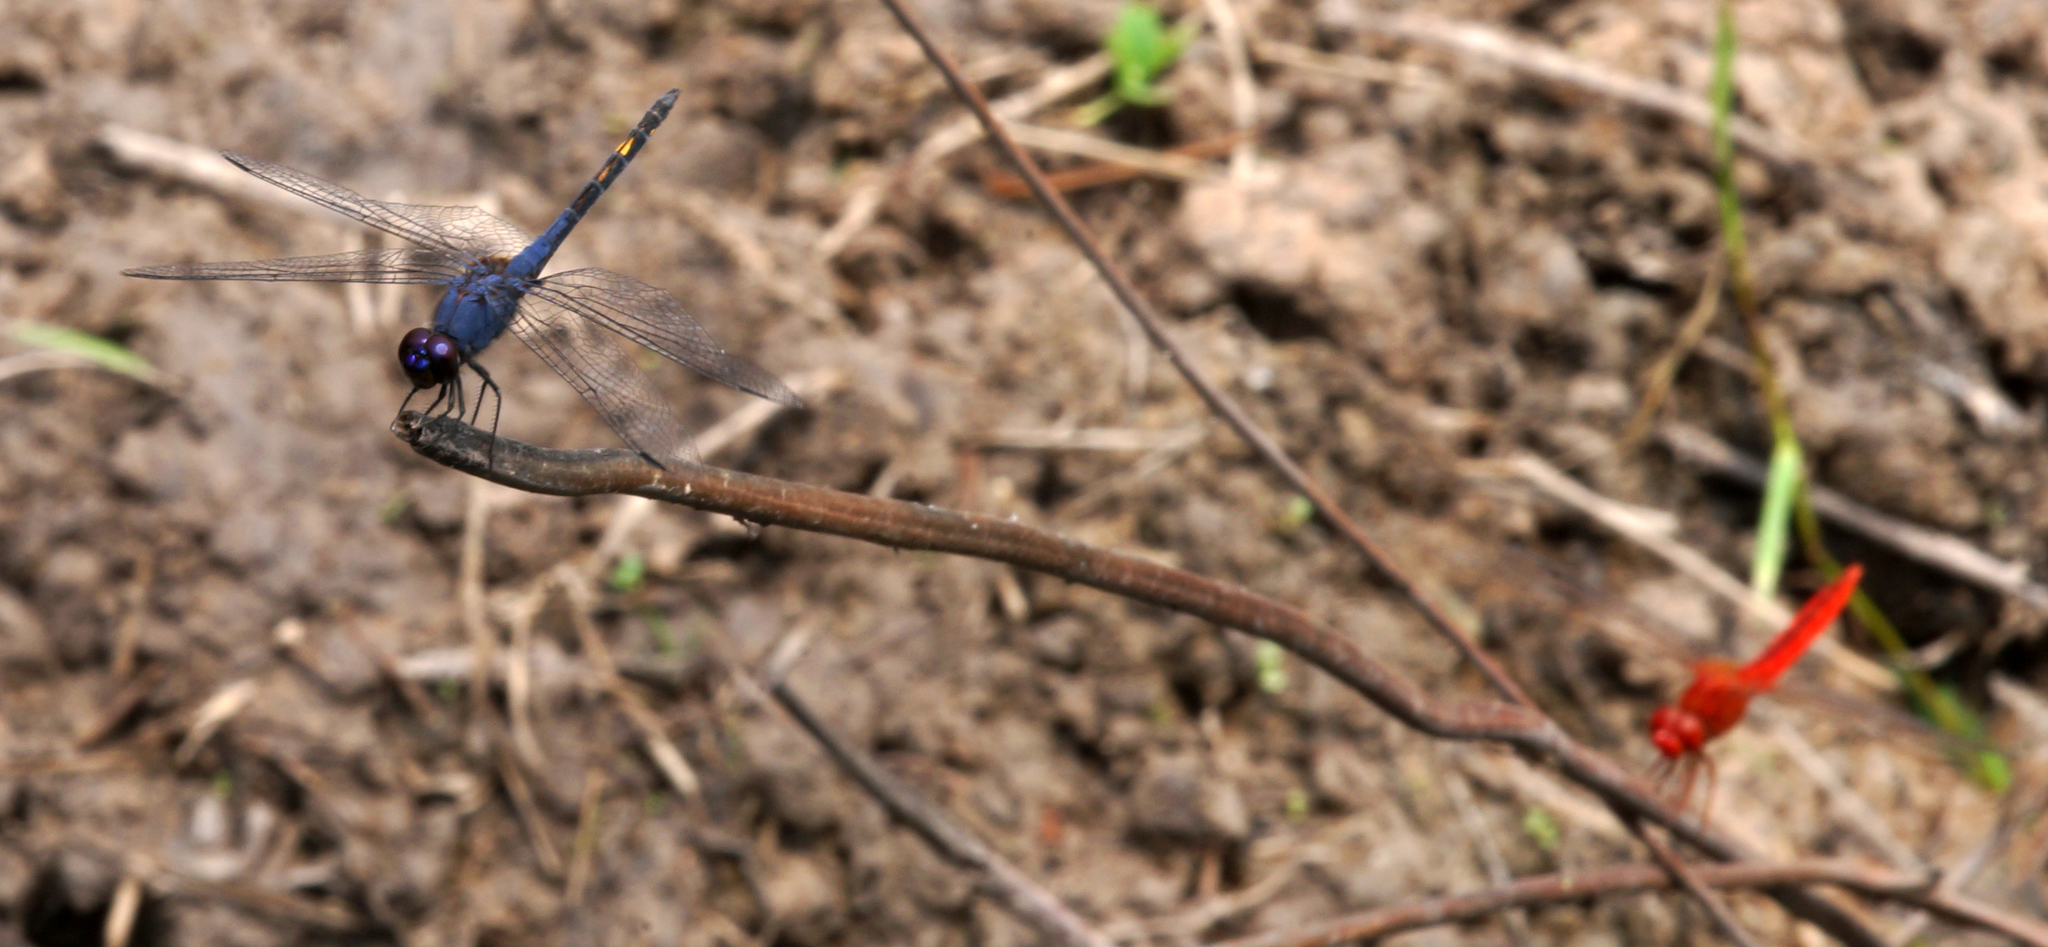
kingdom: Animalia
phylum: Arthropoda
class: Insecta
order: Odonata
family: Libellulidae
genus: Trithemis
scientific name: Trithemis festiva
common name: Indigo dropwing
